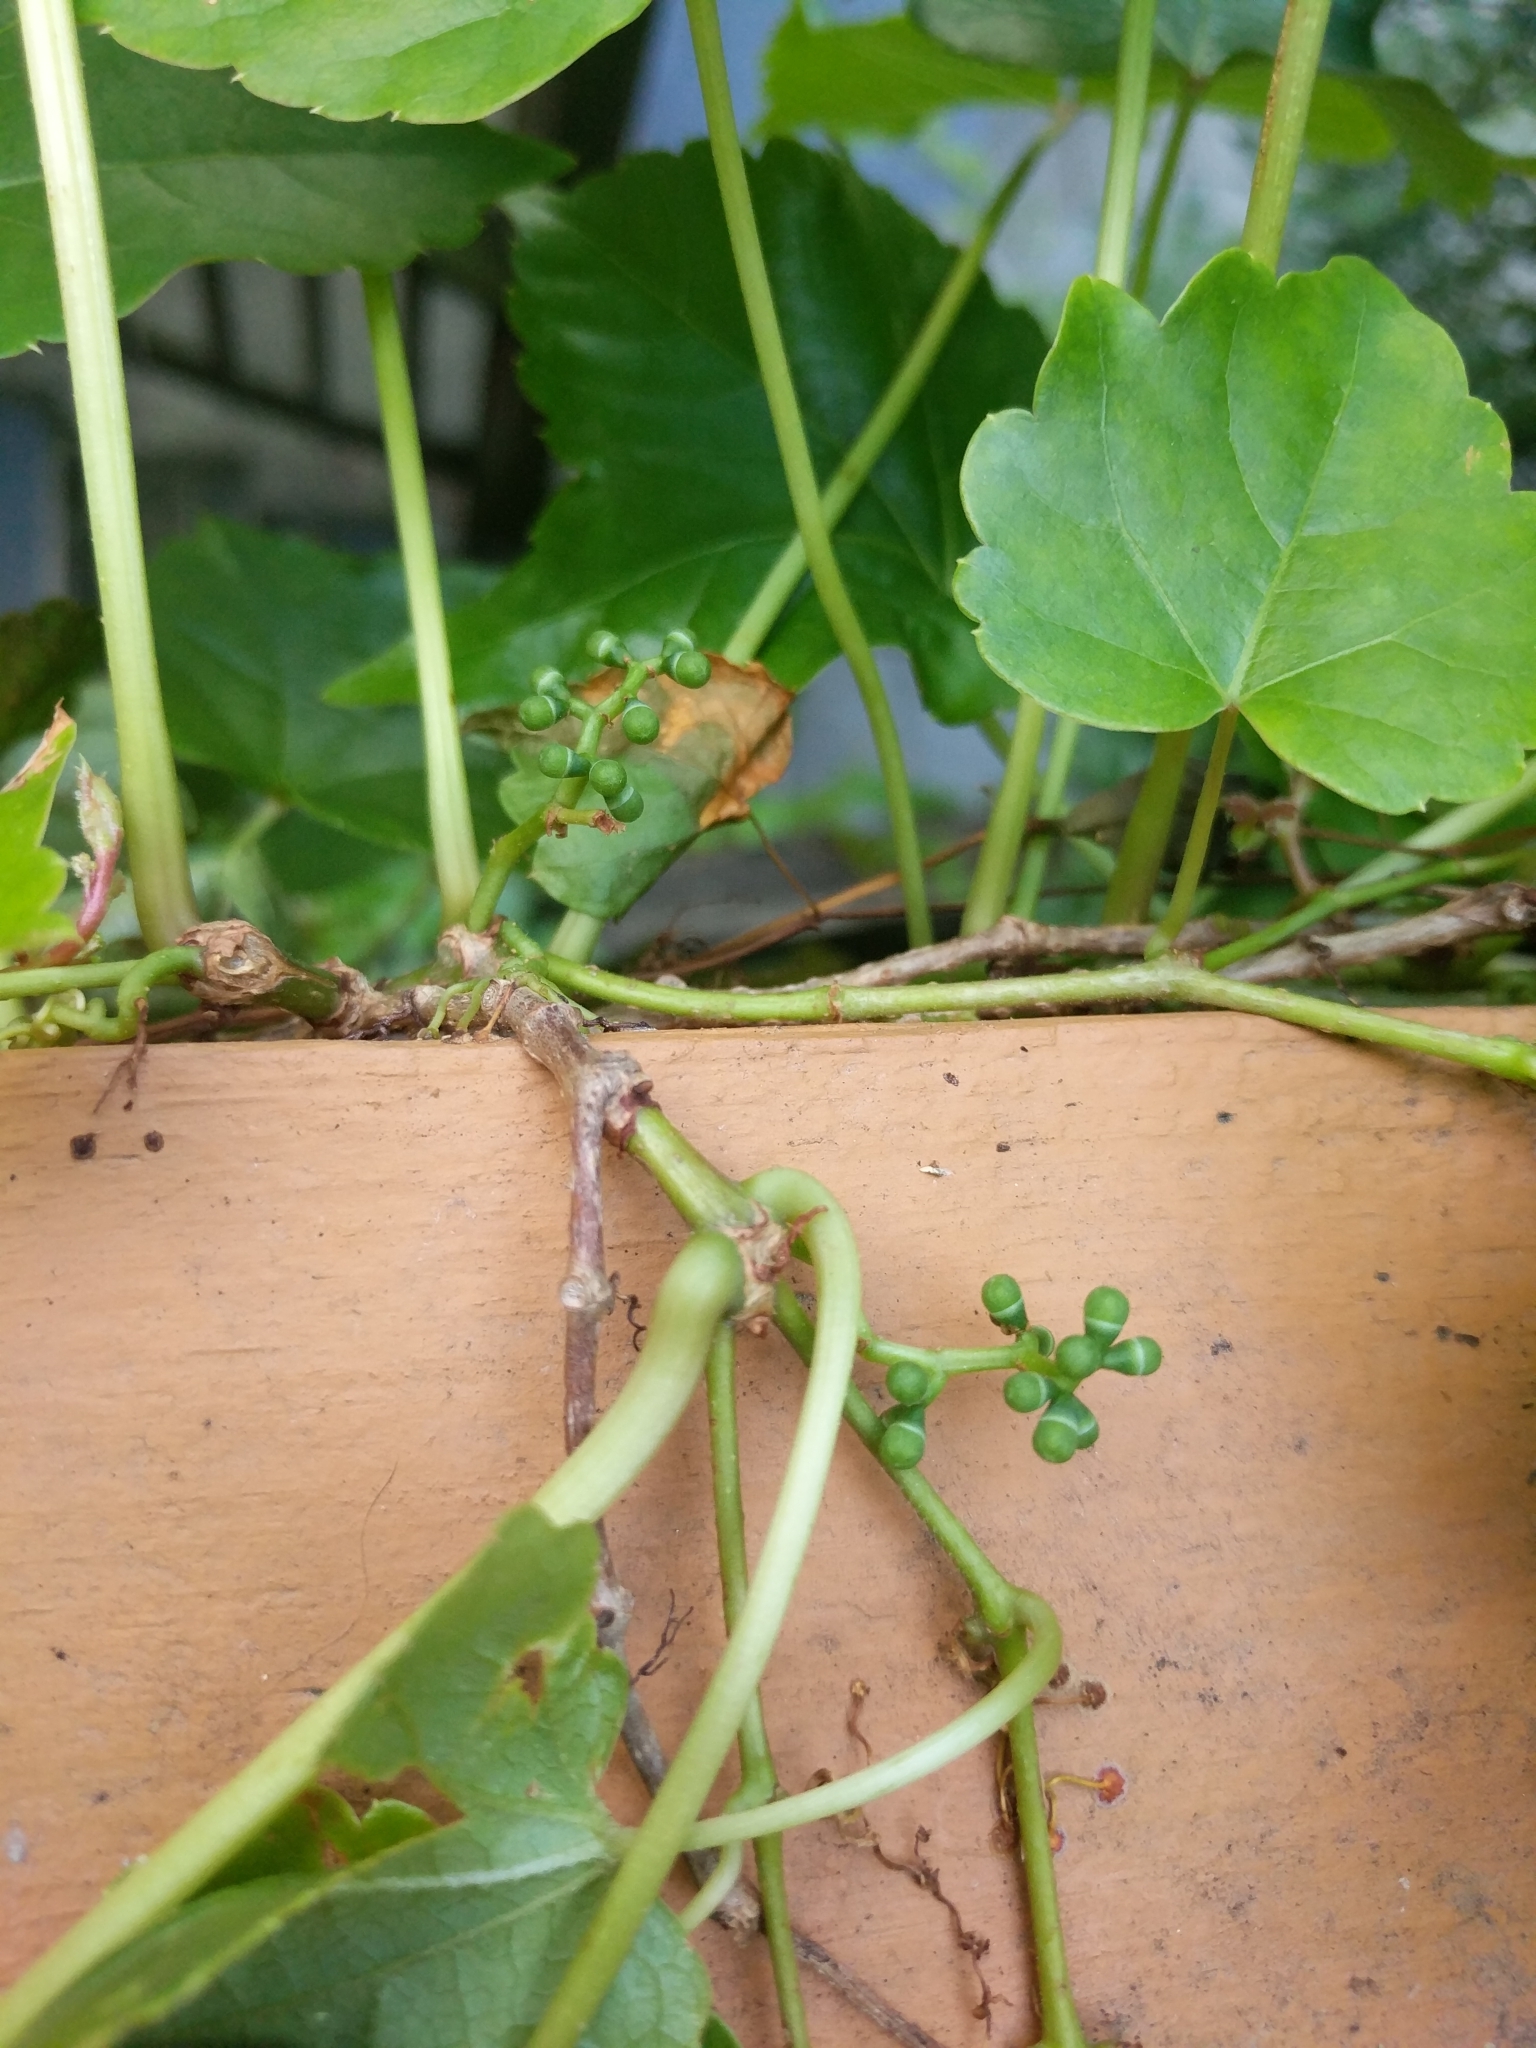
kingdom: Plantae
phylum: Tracheophyta
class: Magnoliopsida
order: Vitales
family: Vitaceae
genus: Parthenocissus
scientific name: Parthenocissus tricuspidata
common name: Boston ivy
